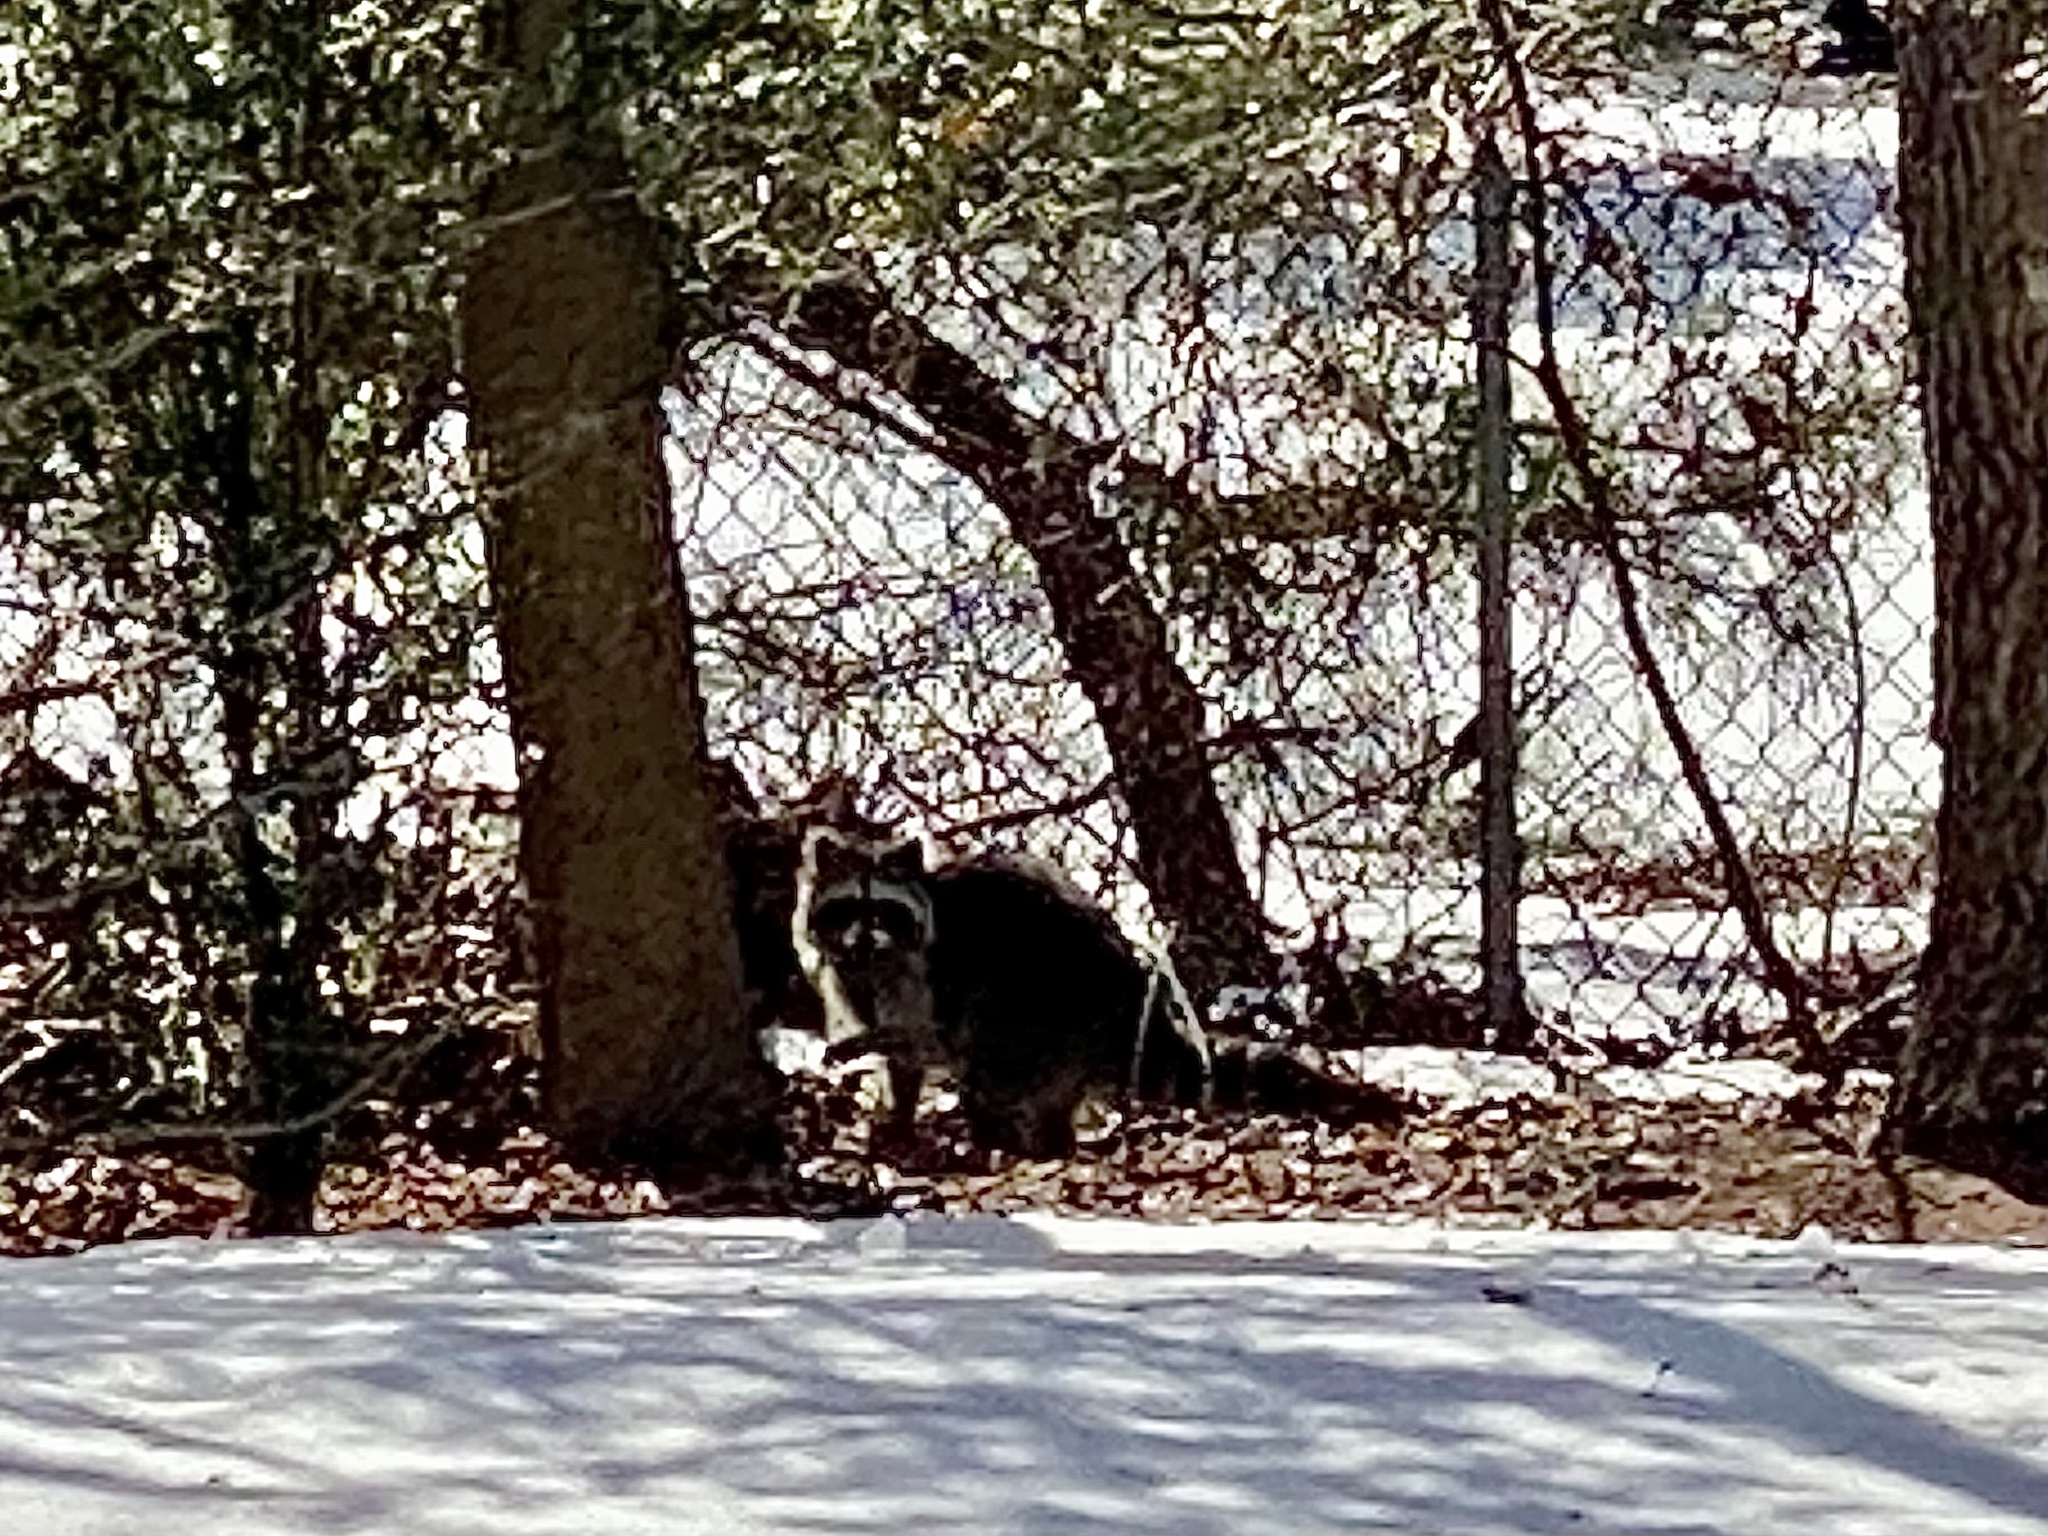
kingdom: Animalia
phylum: Chordata
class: Mammalia
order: Carnivora
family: Procyonidae
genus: Procyon
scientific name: Procyon lotor
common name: Raccoon
